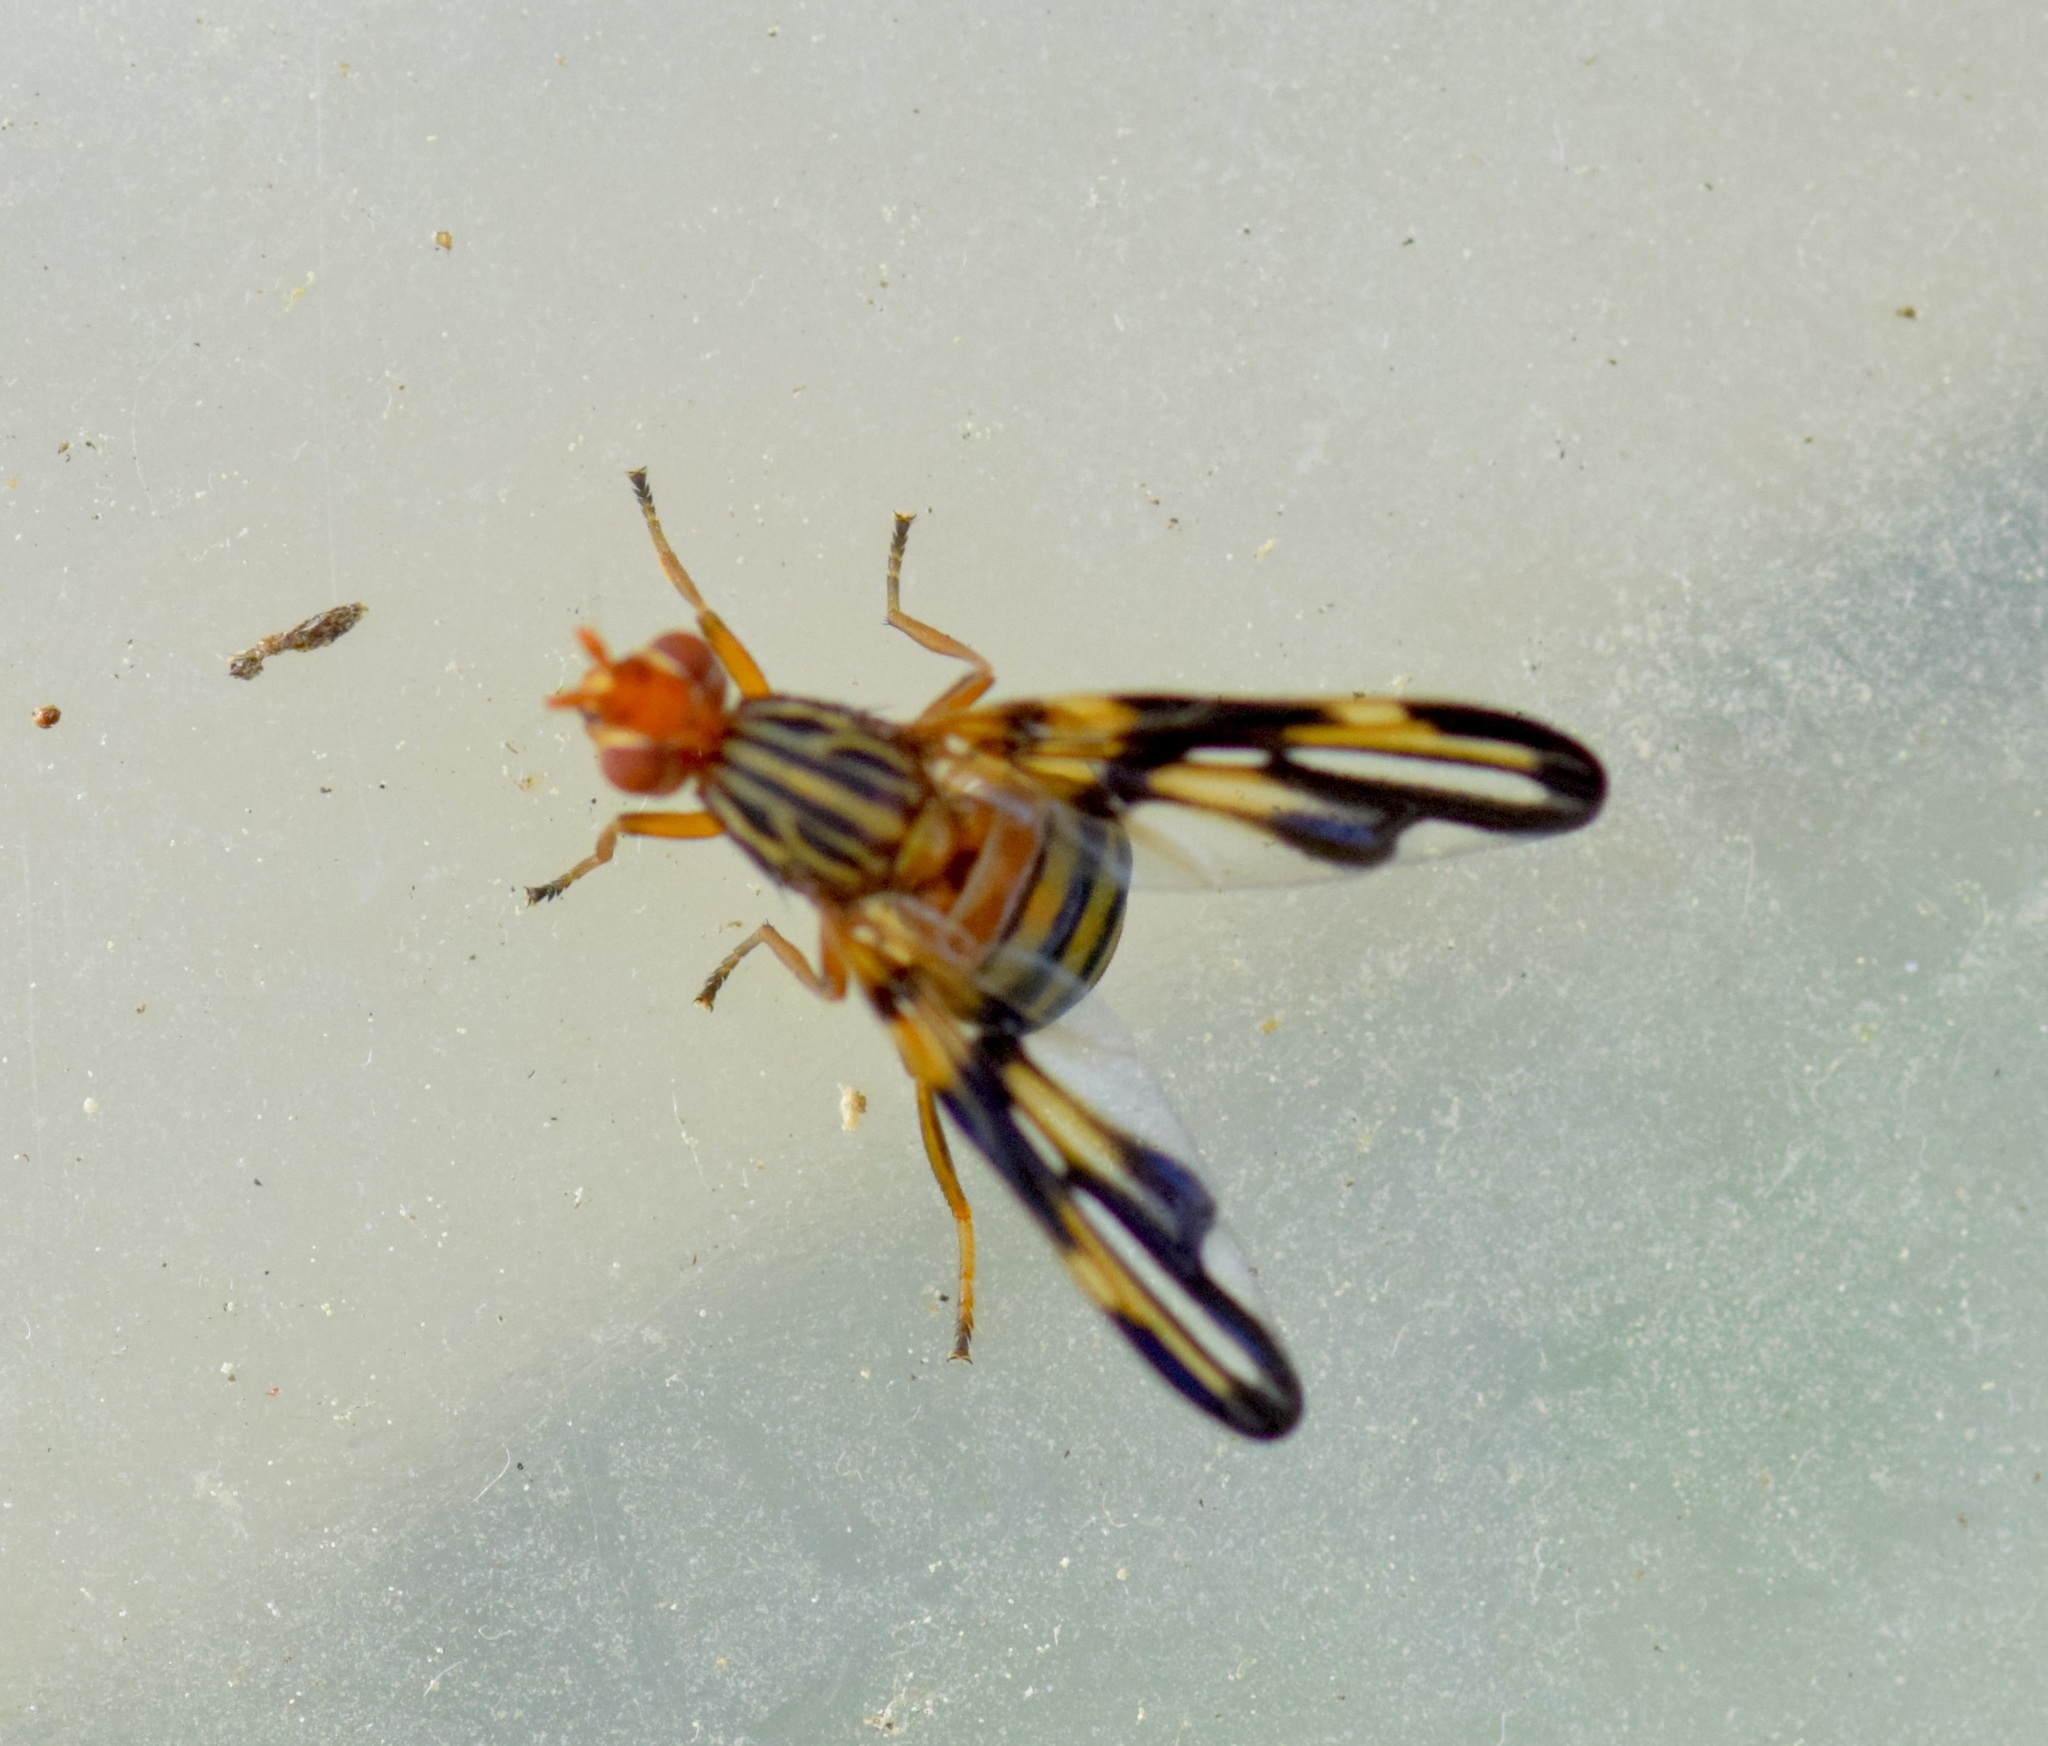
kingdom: Animalia
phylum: Arthropoda
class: Insecta
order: Diptera
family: Ulidiidae
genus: Idana
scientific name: Idana marginata
